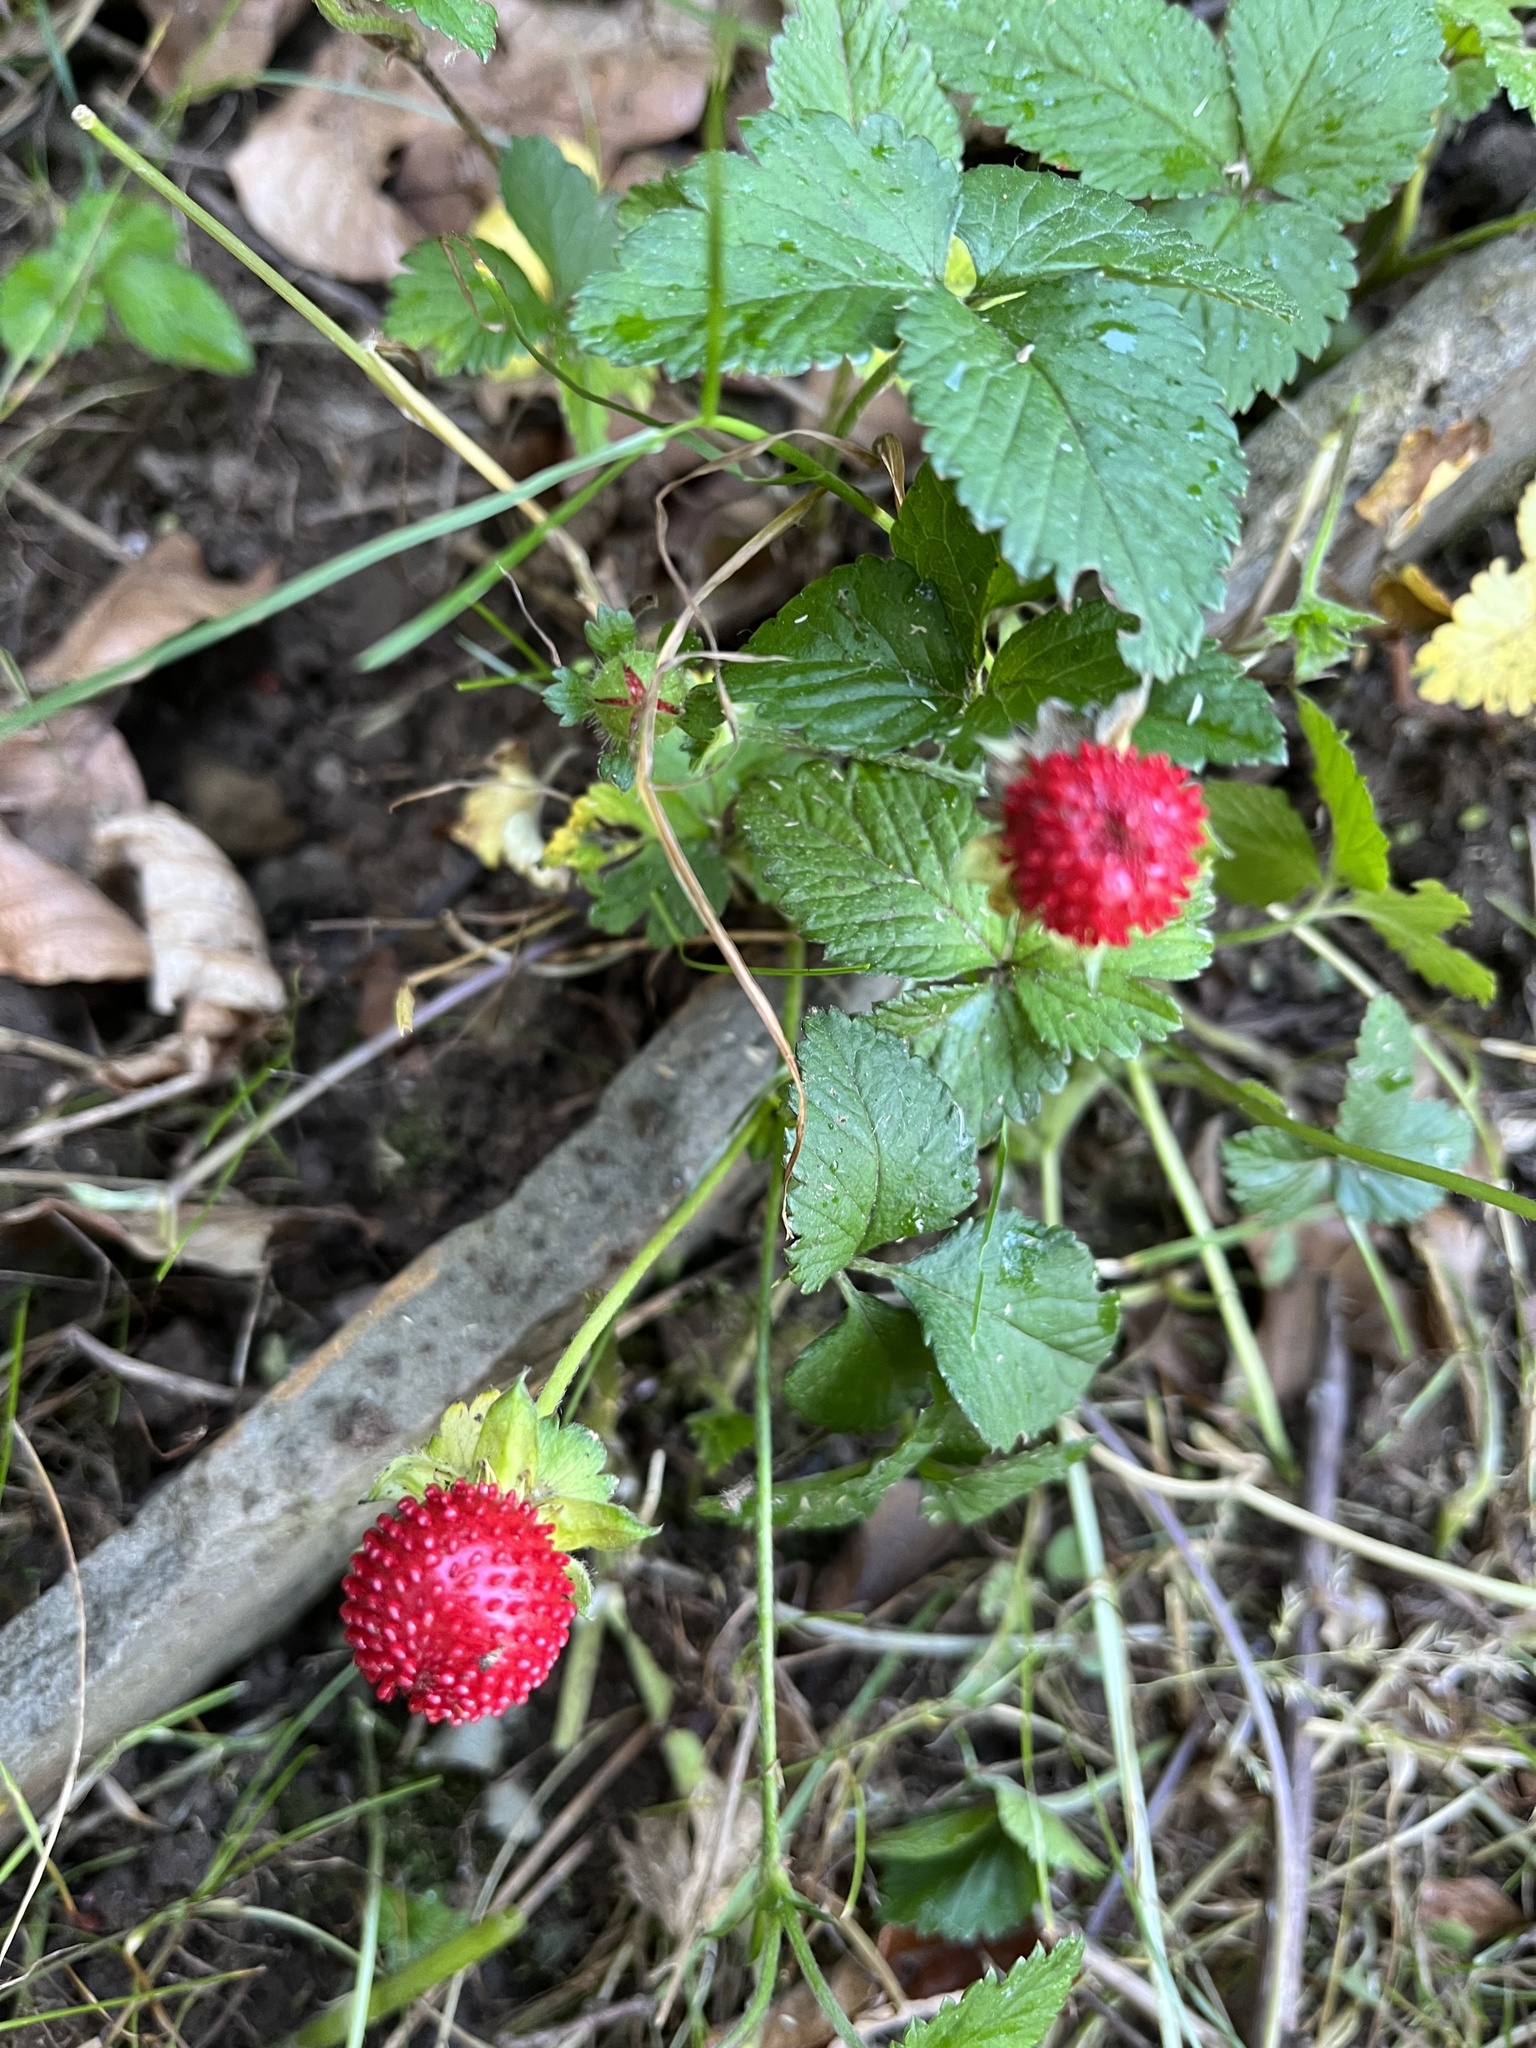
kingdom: Plantae
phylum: Tracheophyta
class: Magnoliopsida
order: Rosales
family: Rosaceae
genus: Potentilla
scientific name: Potentilla indica
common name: Yellow-flowered strawberry
